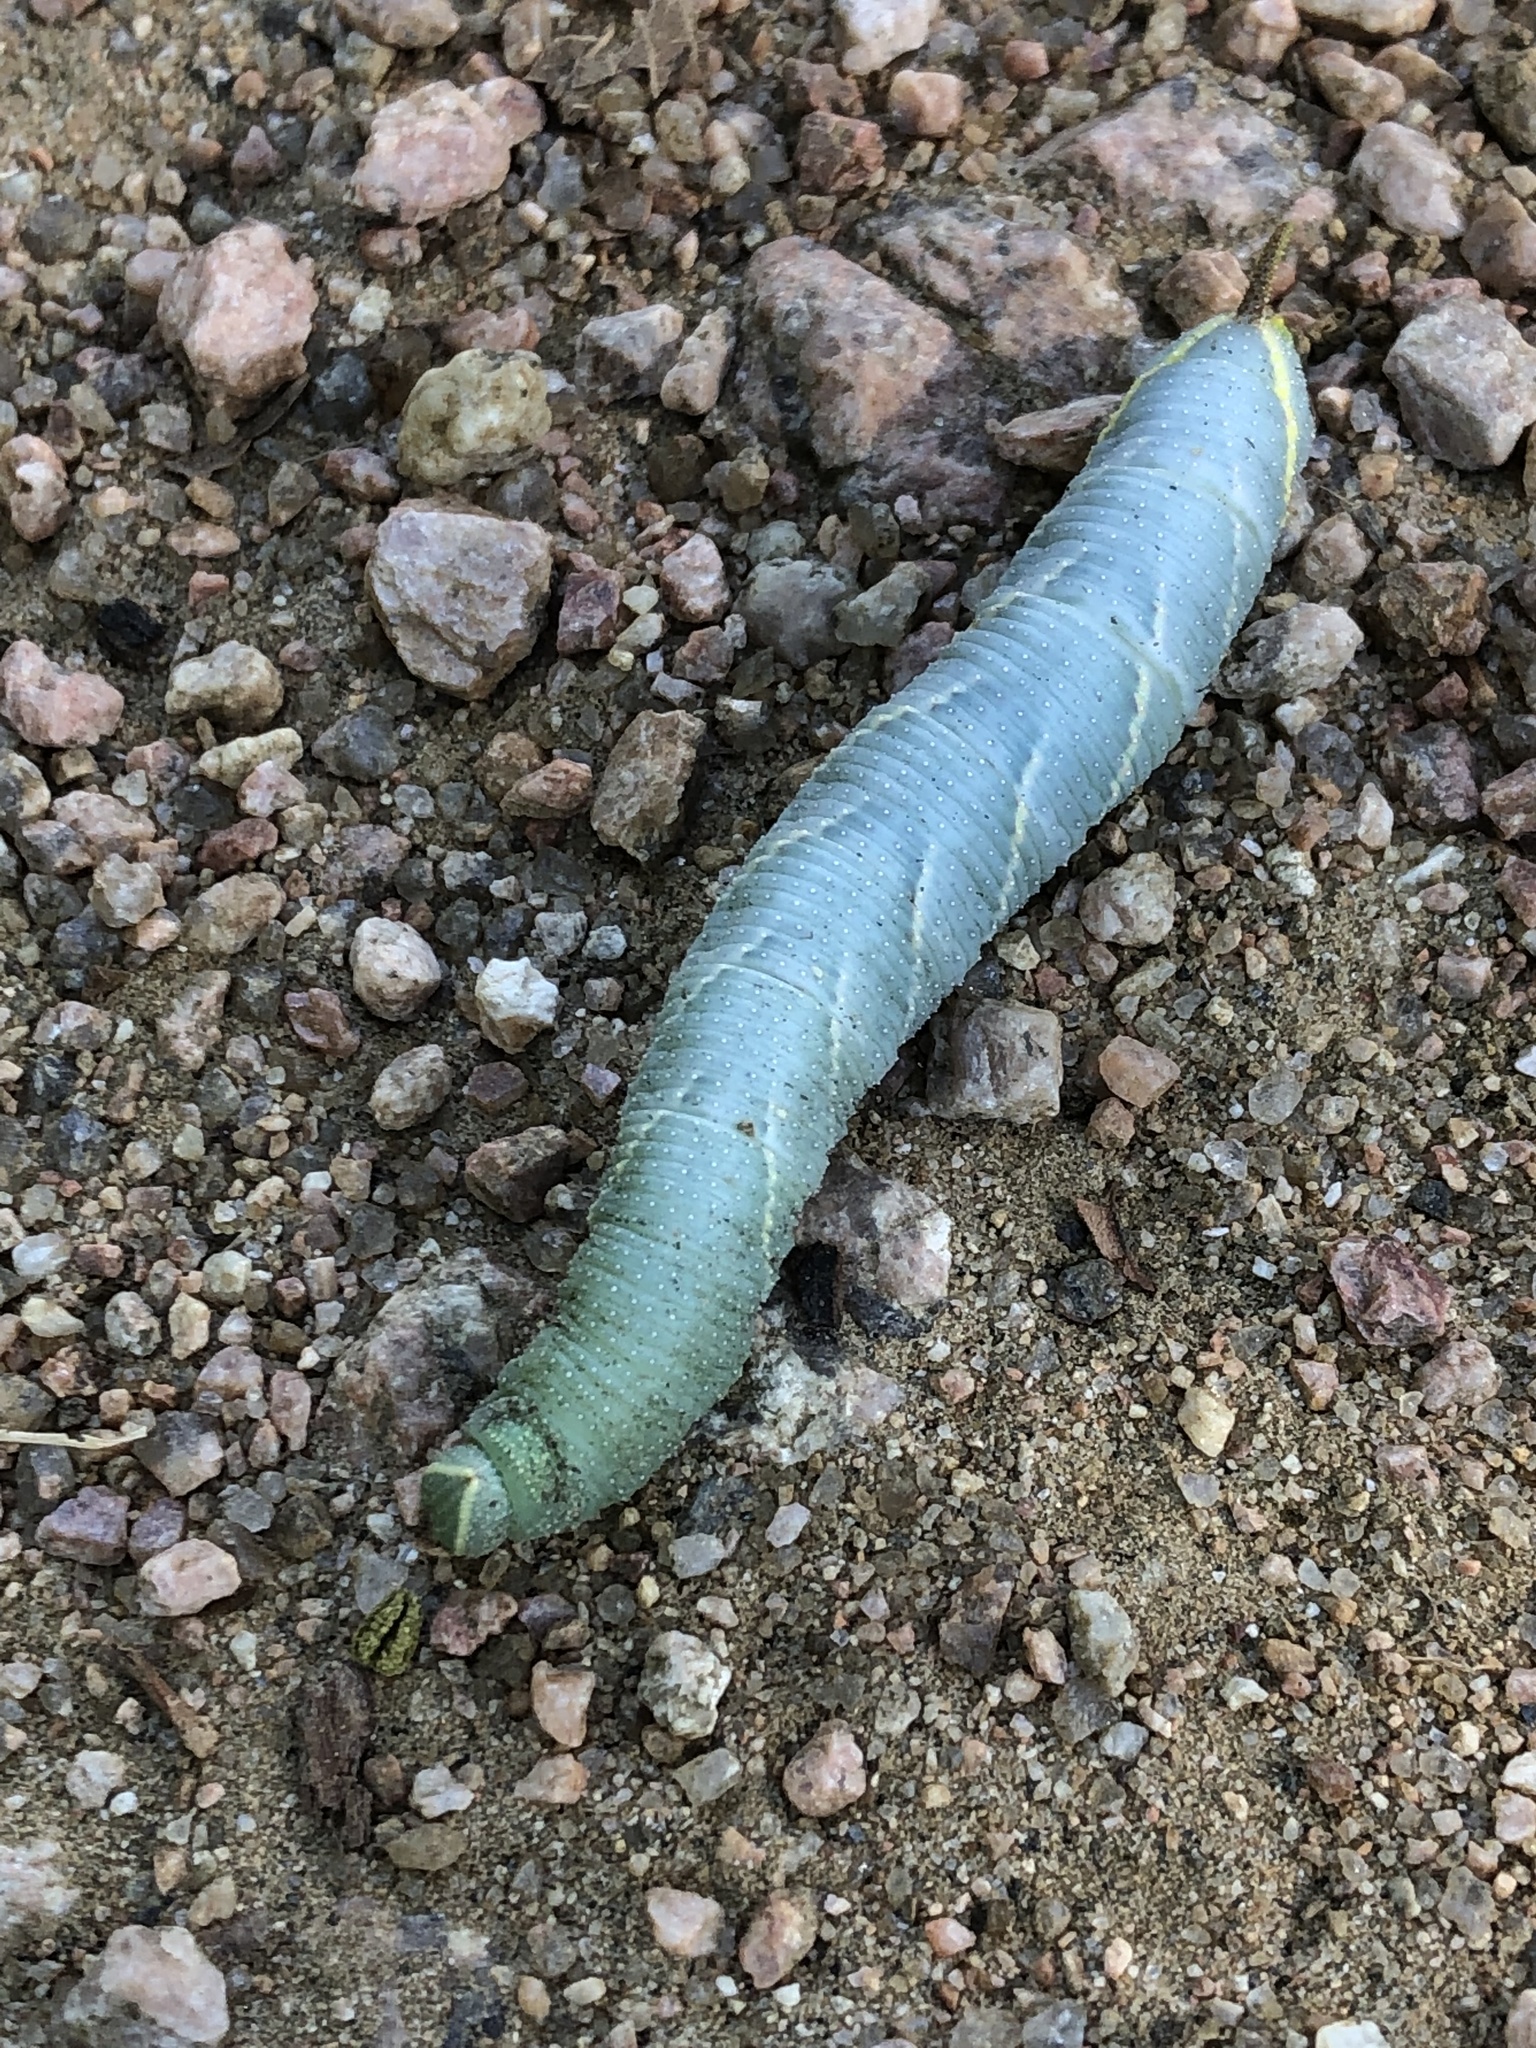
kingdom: Animalia
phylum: Arthropoda
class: Insecta
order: Lepidoptera
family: Sphingidae
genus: Amorpha
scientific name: Amorpha juglandis
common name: Walnut sphinx
